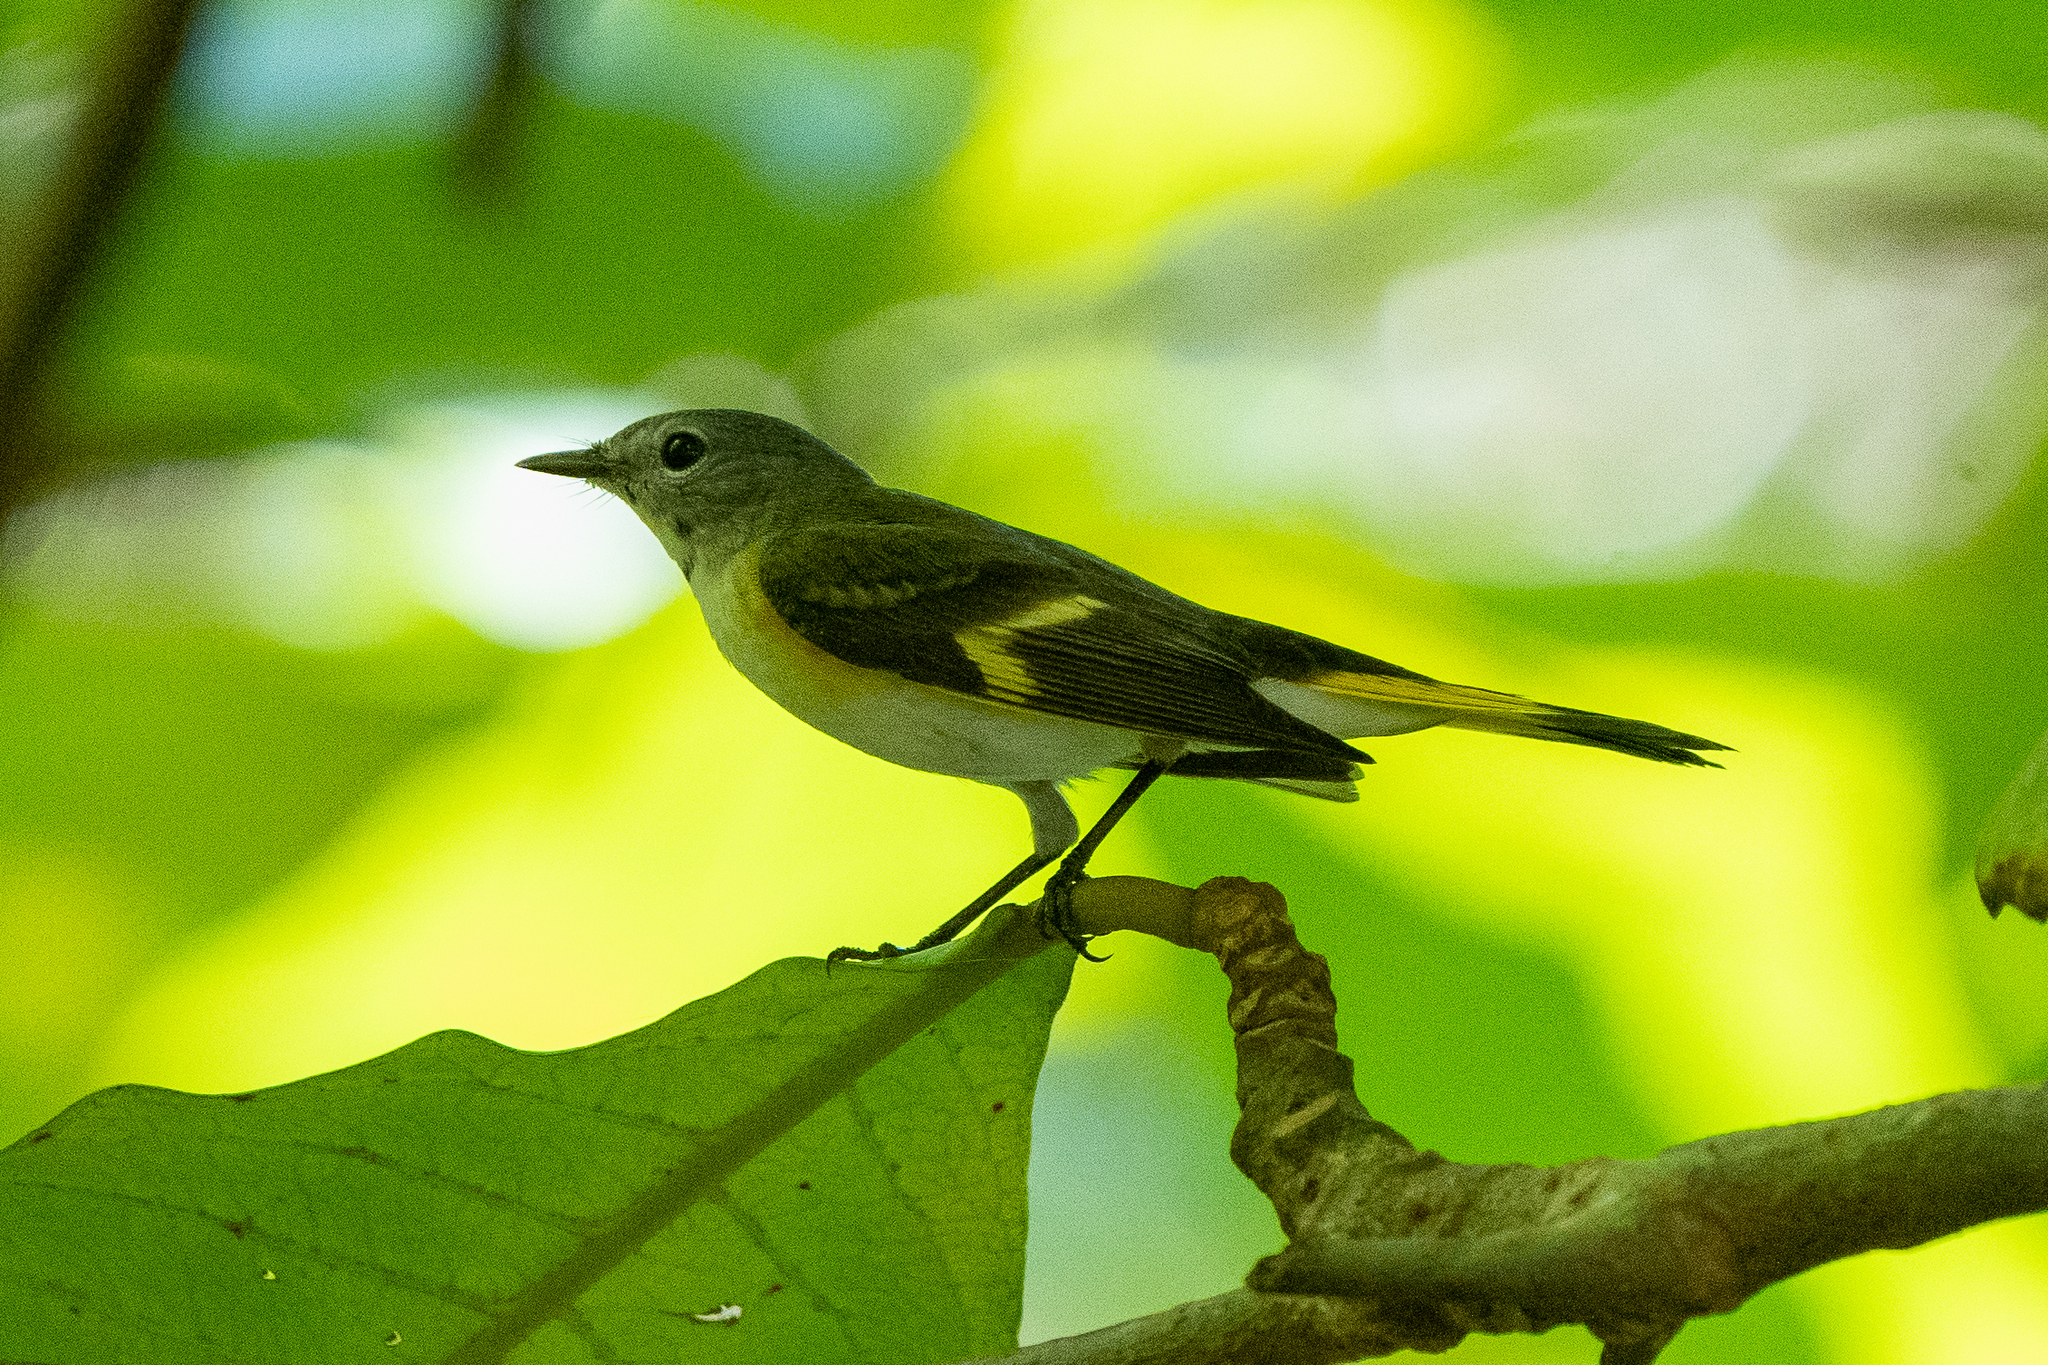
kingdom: Animalia
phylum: Chordata
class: Aves
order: Passeriformes
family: Parulidae
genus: Setophaga
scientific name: Setophaga ruticilla
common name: American redstart
